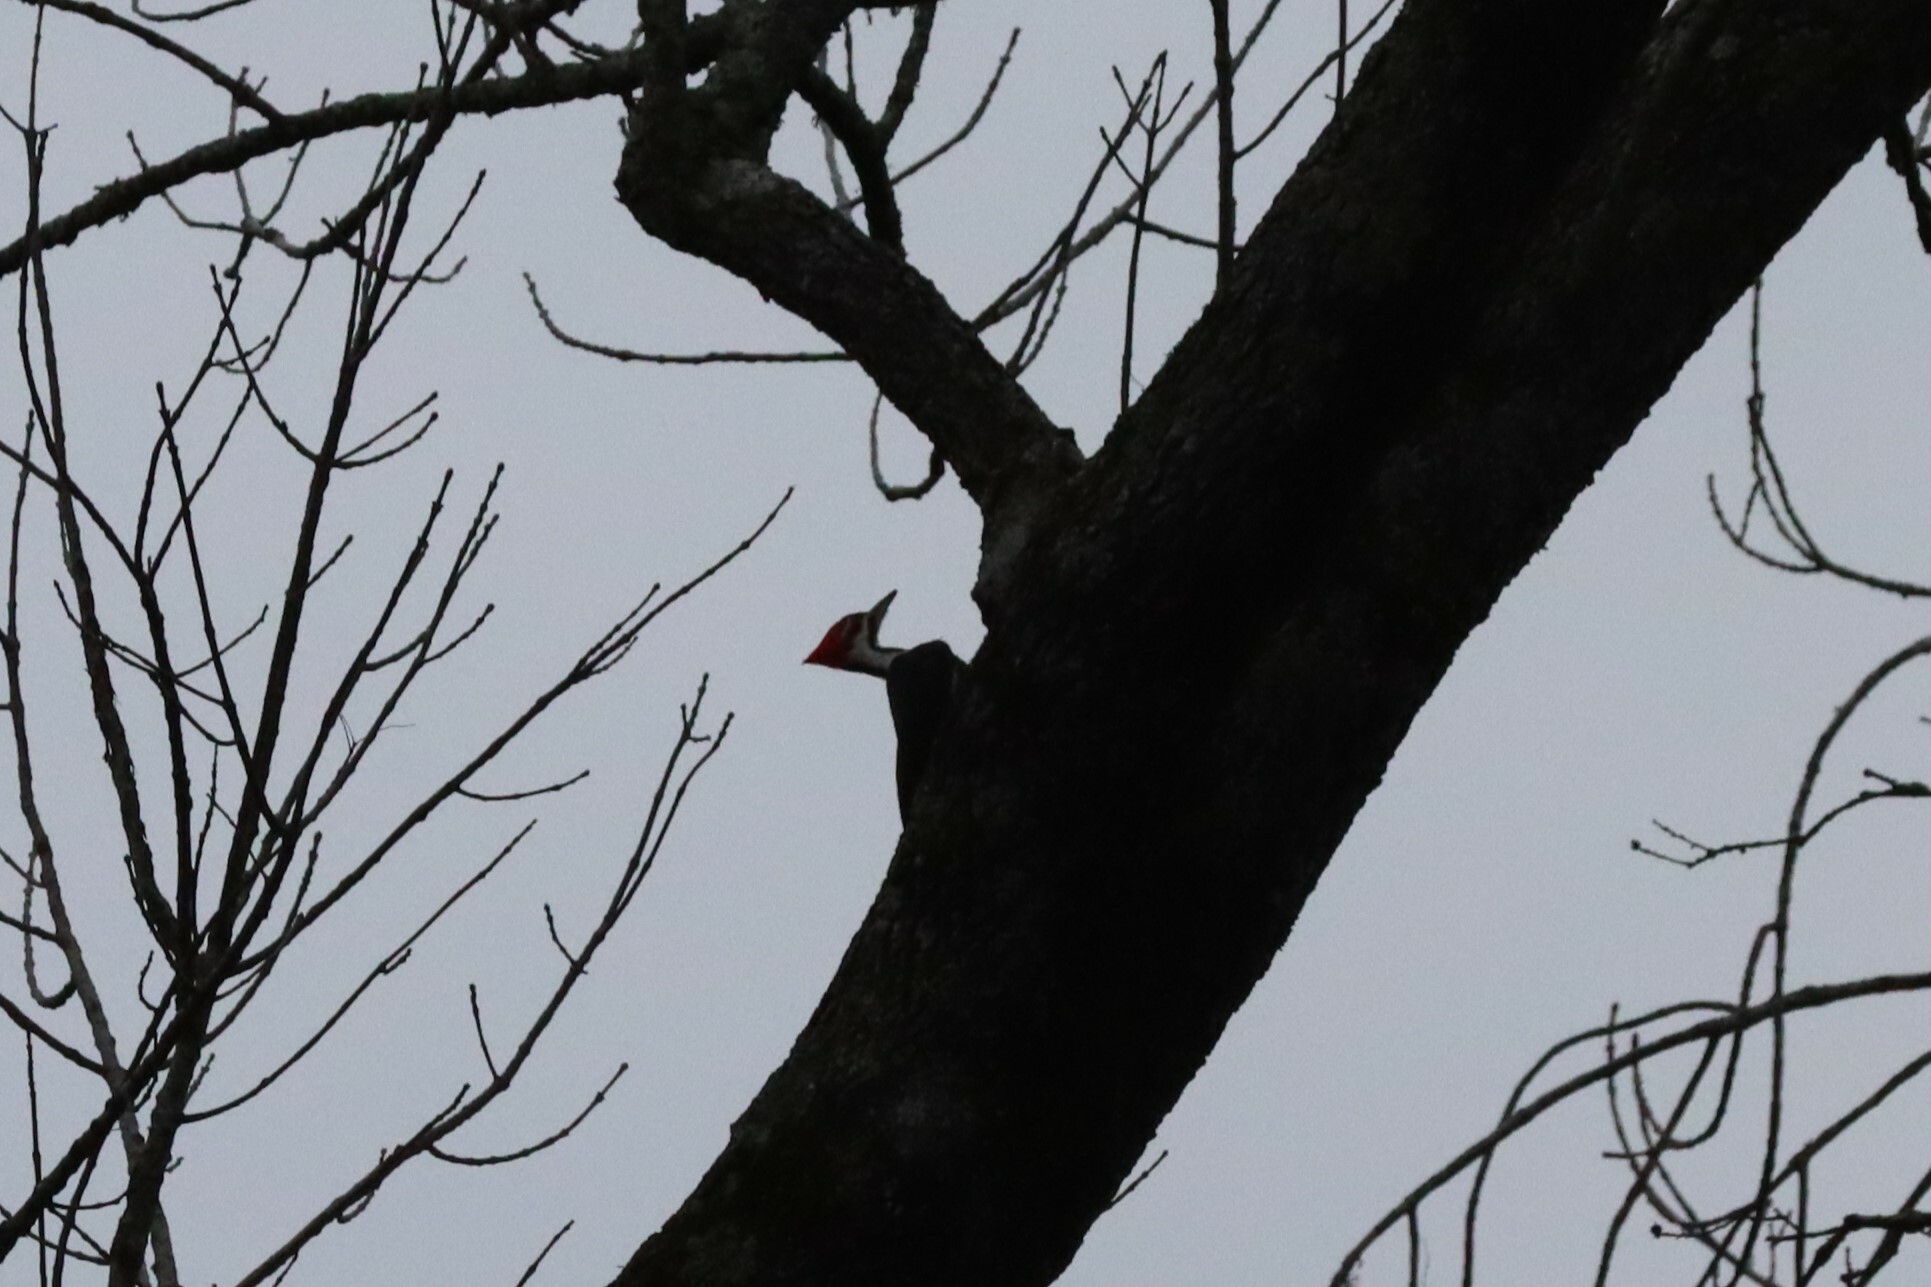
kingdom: Animalia
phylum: Chordata
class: Aves
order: Piciformes
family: Picidae
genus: Dryocopus
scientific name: Dryocopus pileatus
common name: Pileated woodpecker
